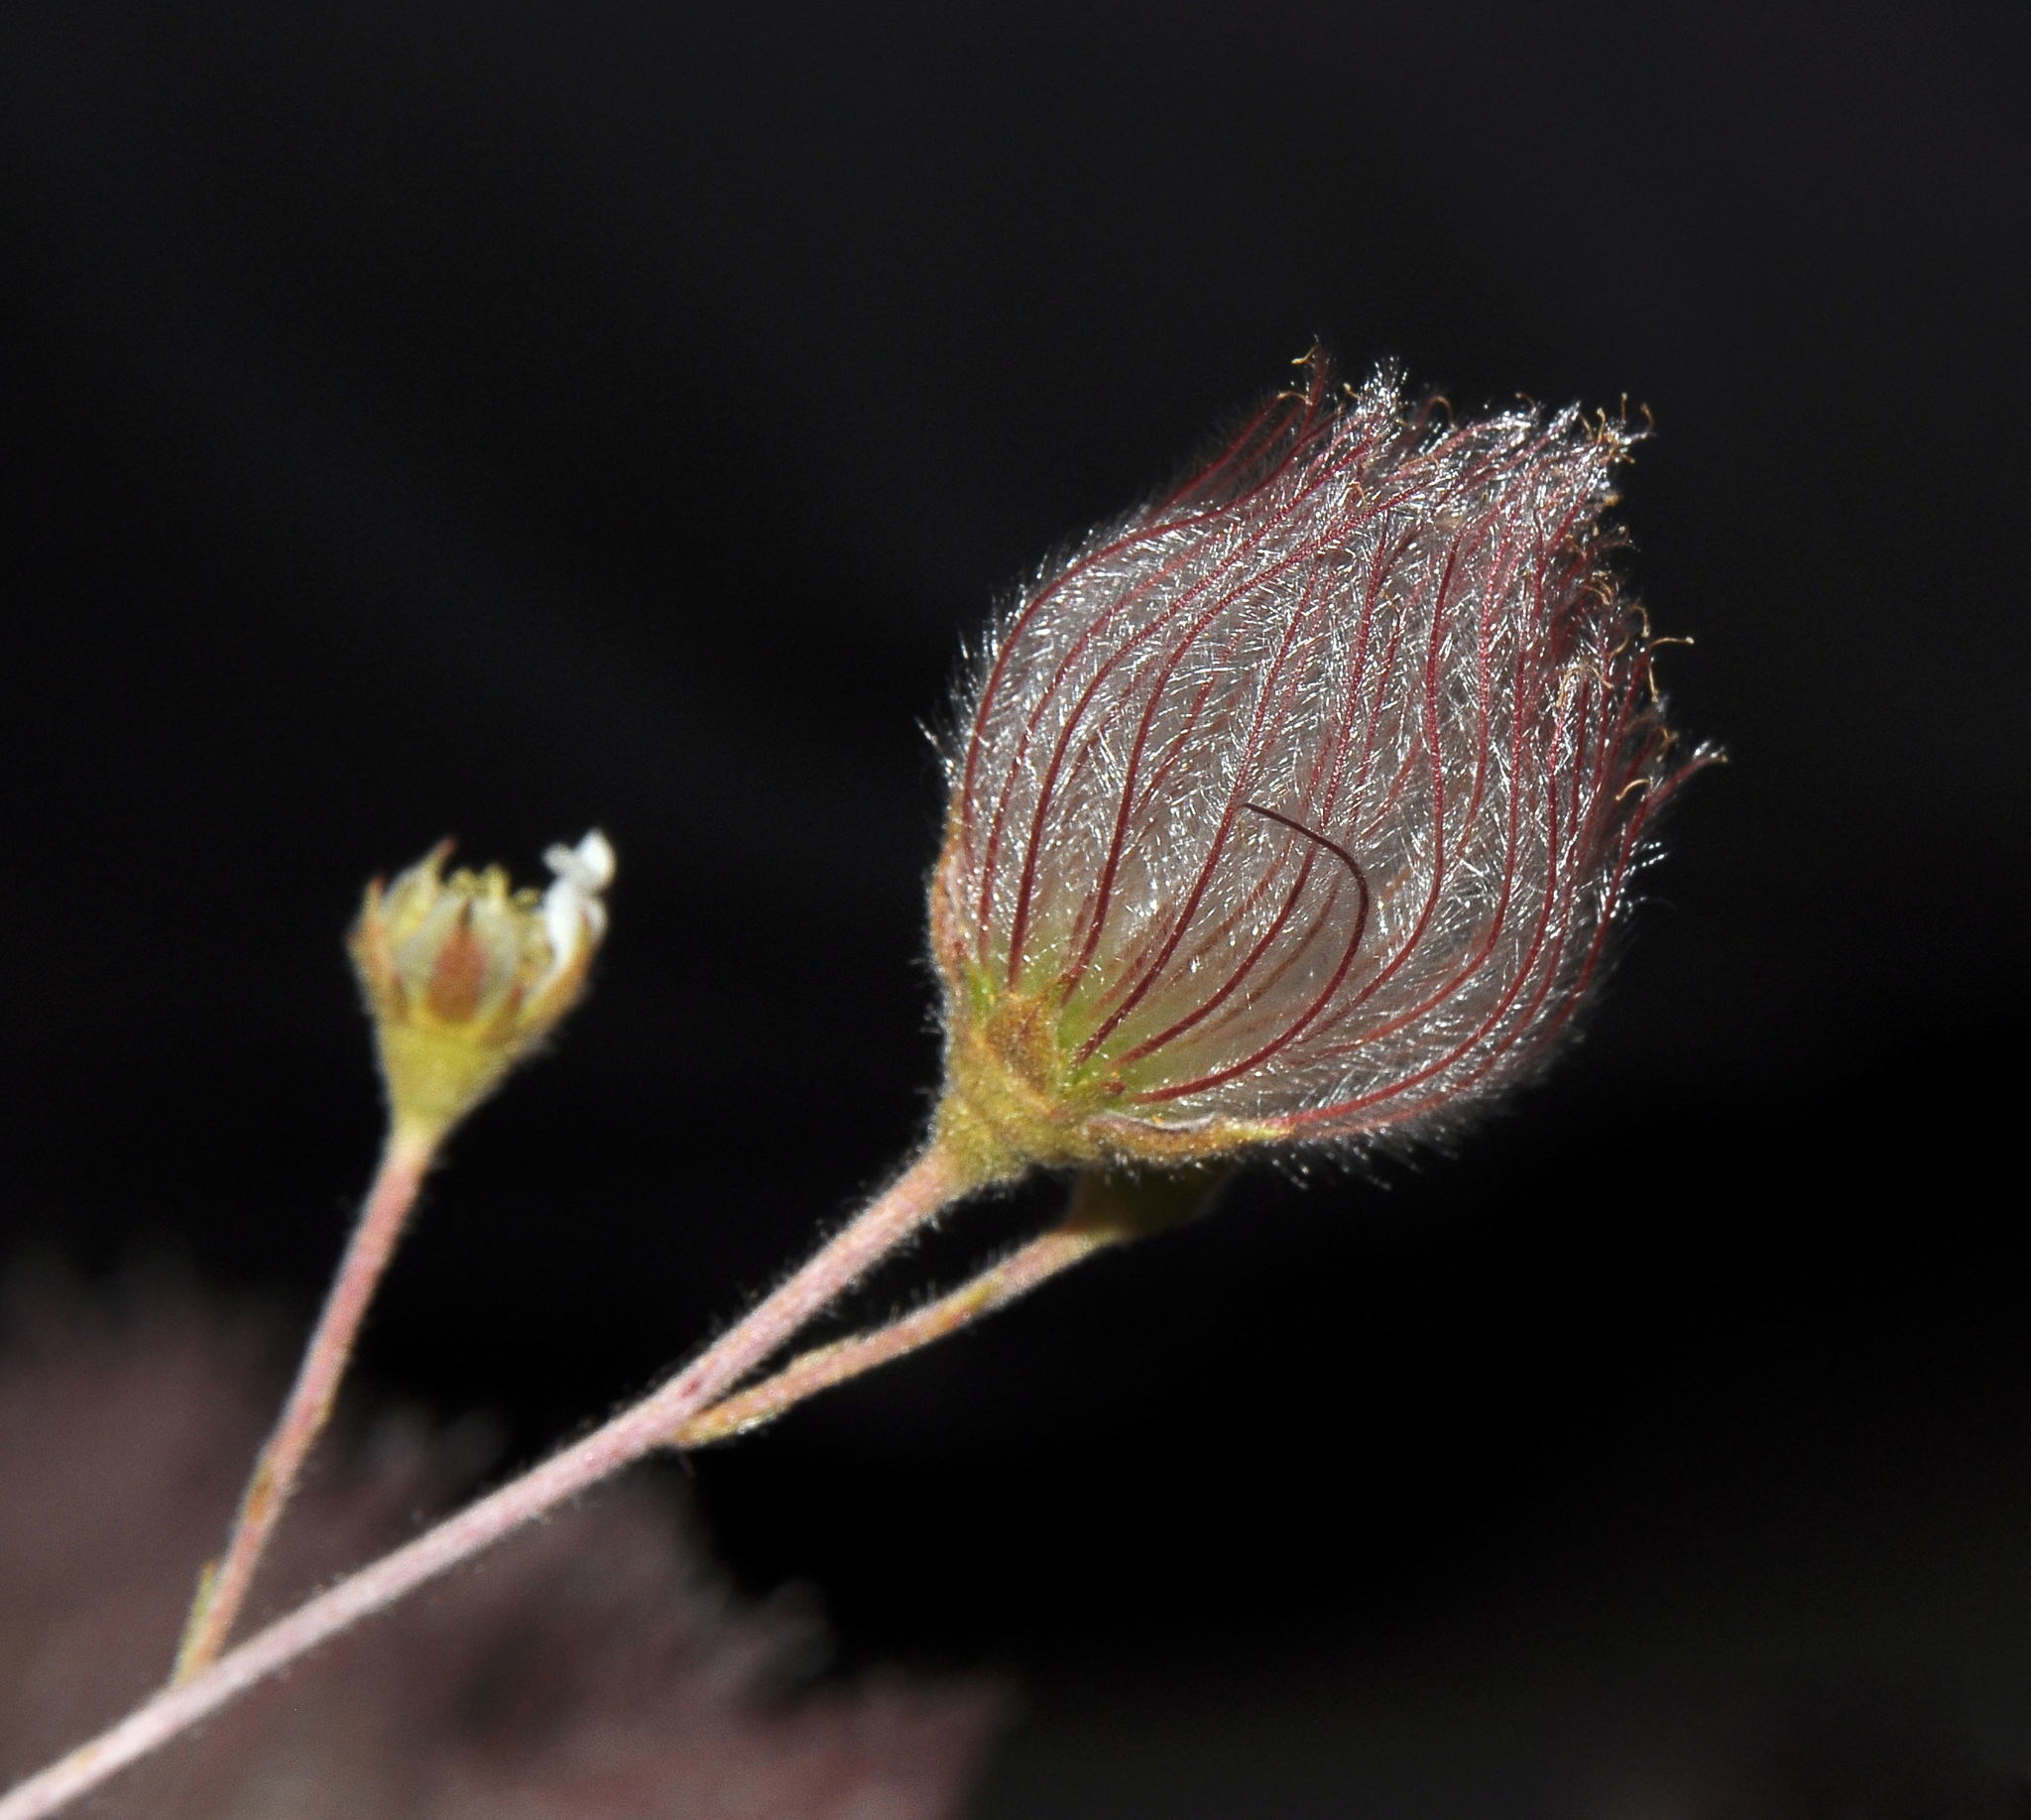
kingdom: Plantae
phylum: Tracheophyta
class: Magnoliopsida
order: Rosales
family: Rosaceae
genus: Fallugia
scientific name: Fallugia paradoxa
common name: Apache-plume
